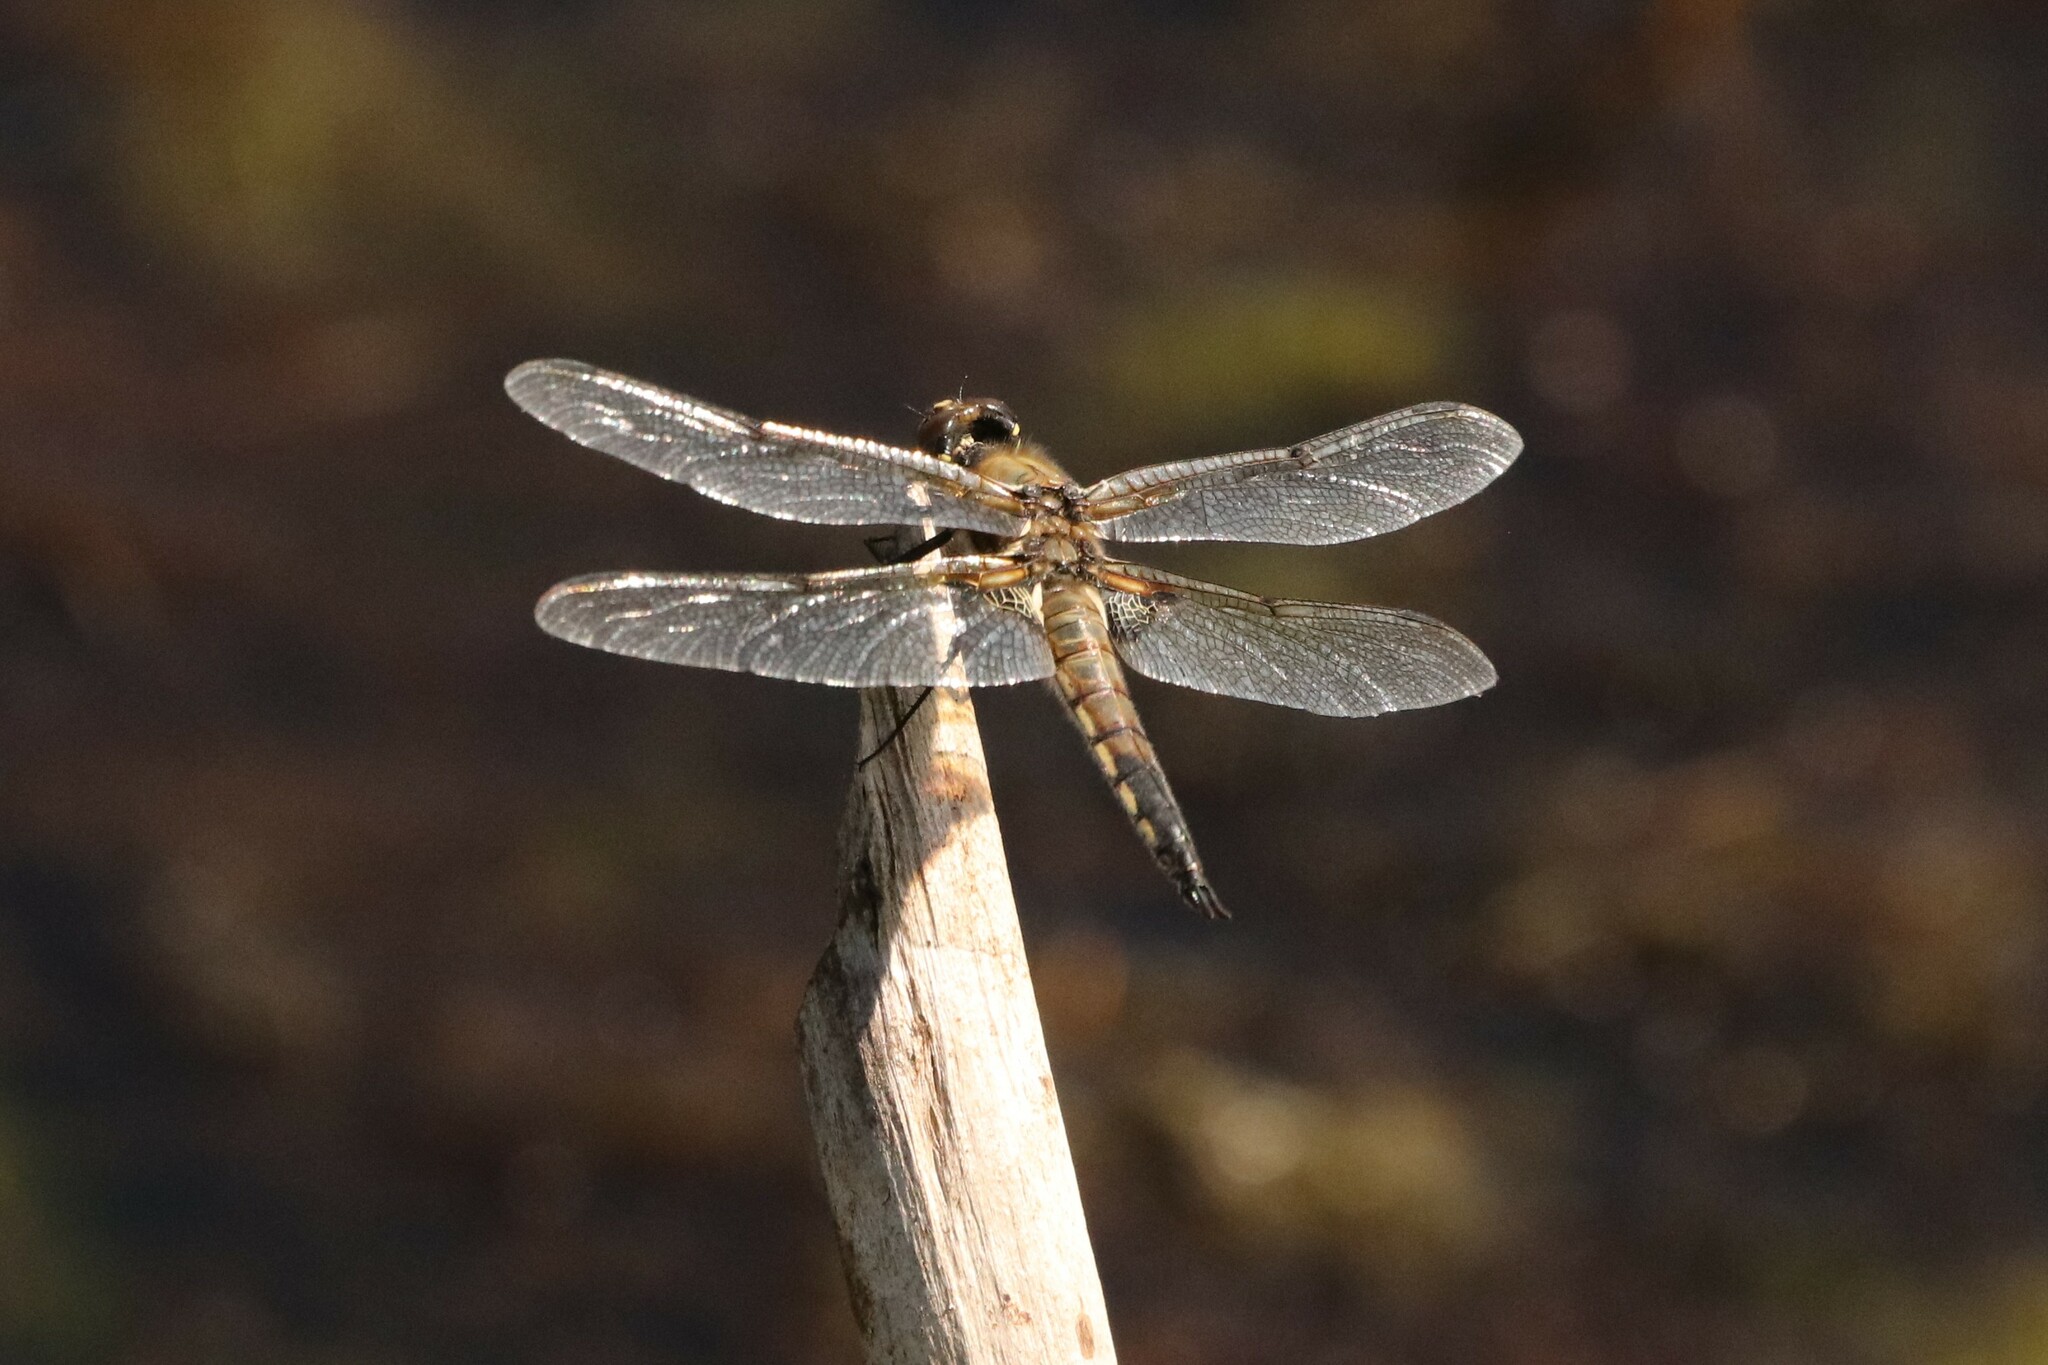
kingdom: Animalia
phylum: Arthropoda
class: Insecta
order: Odonata
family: Libellulidae
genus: Libellula
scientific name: Libellula quadrimaculata
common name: Four-spotted chaser
